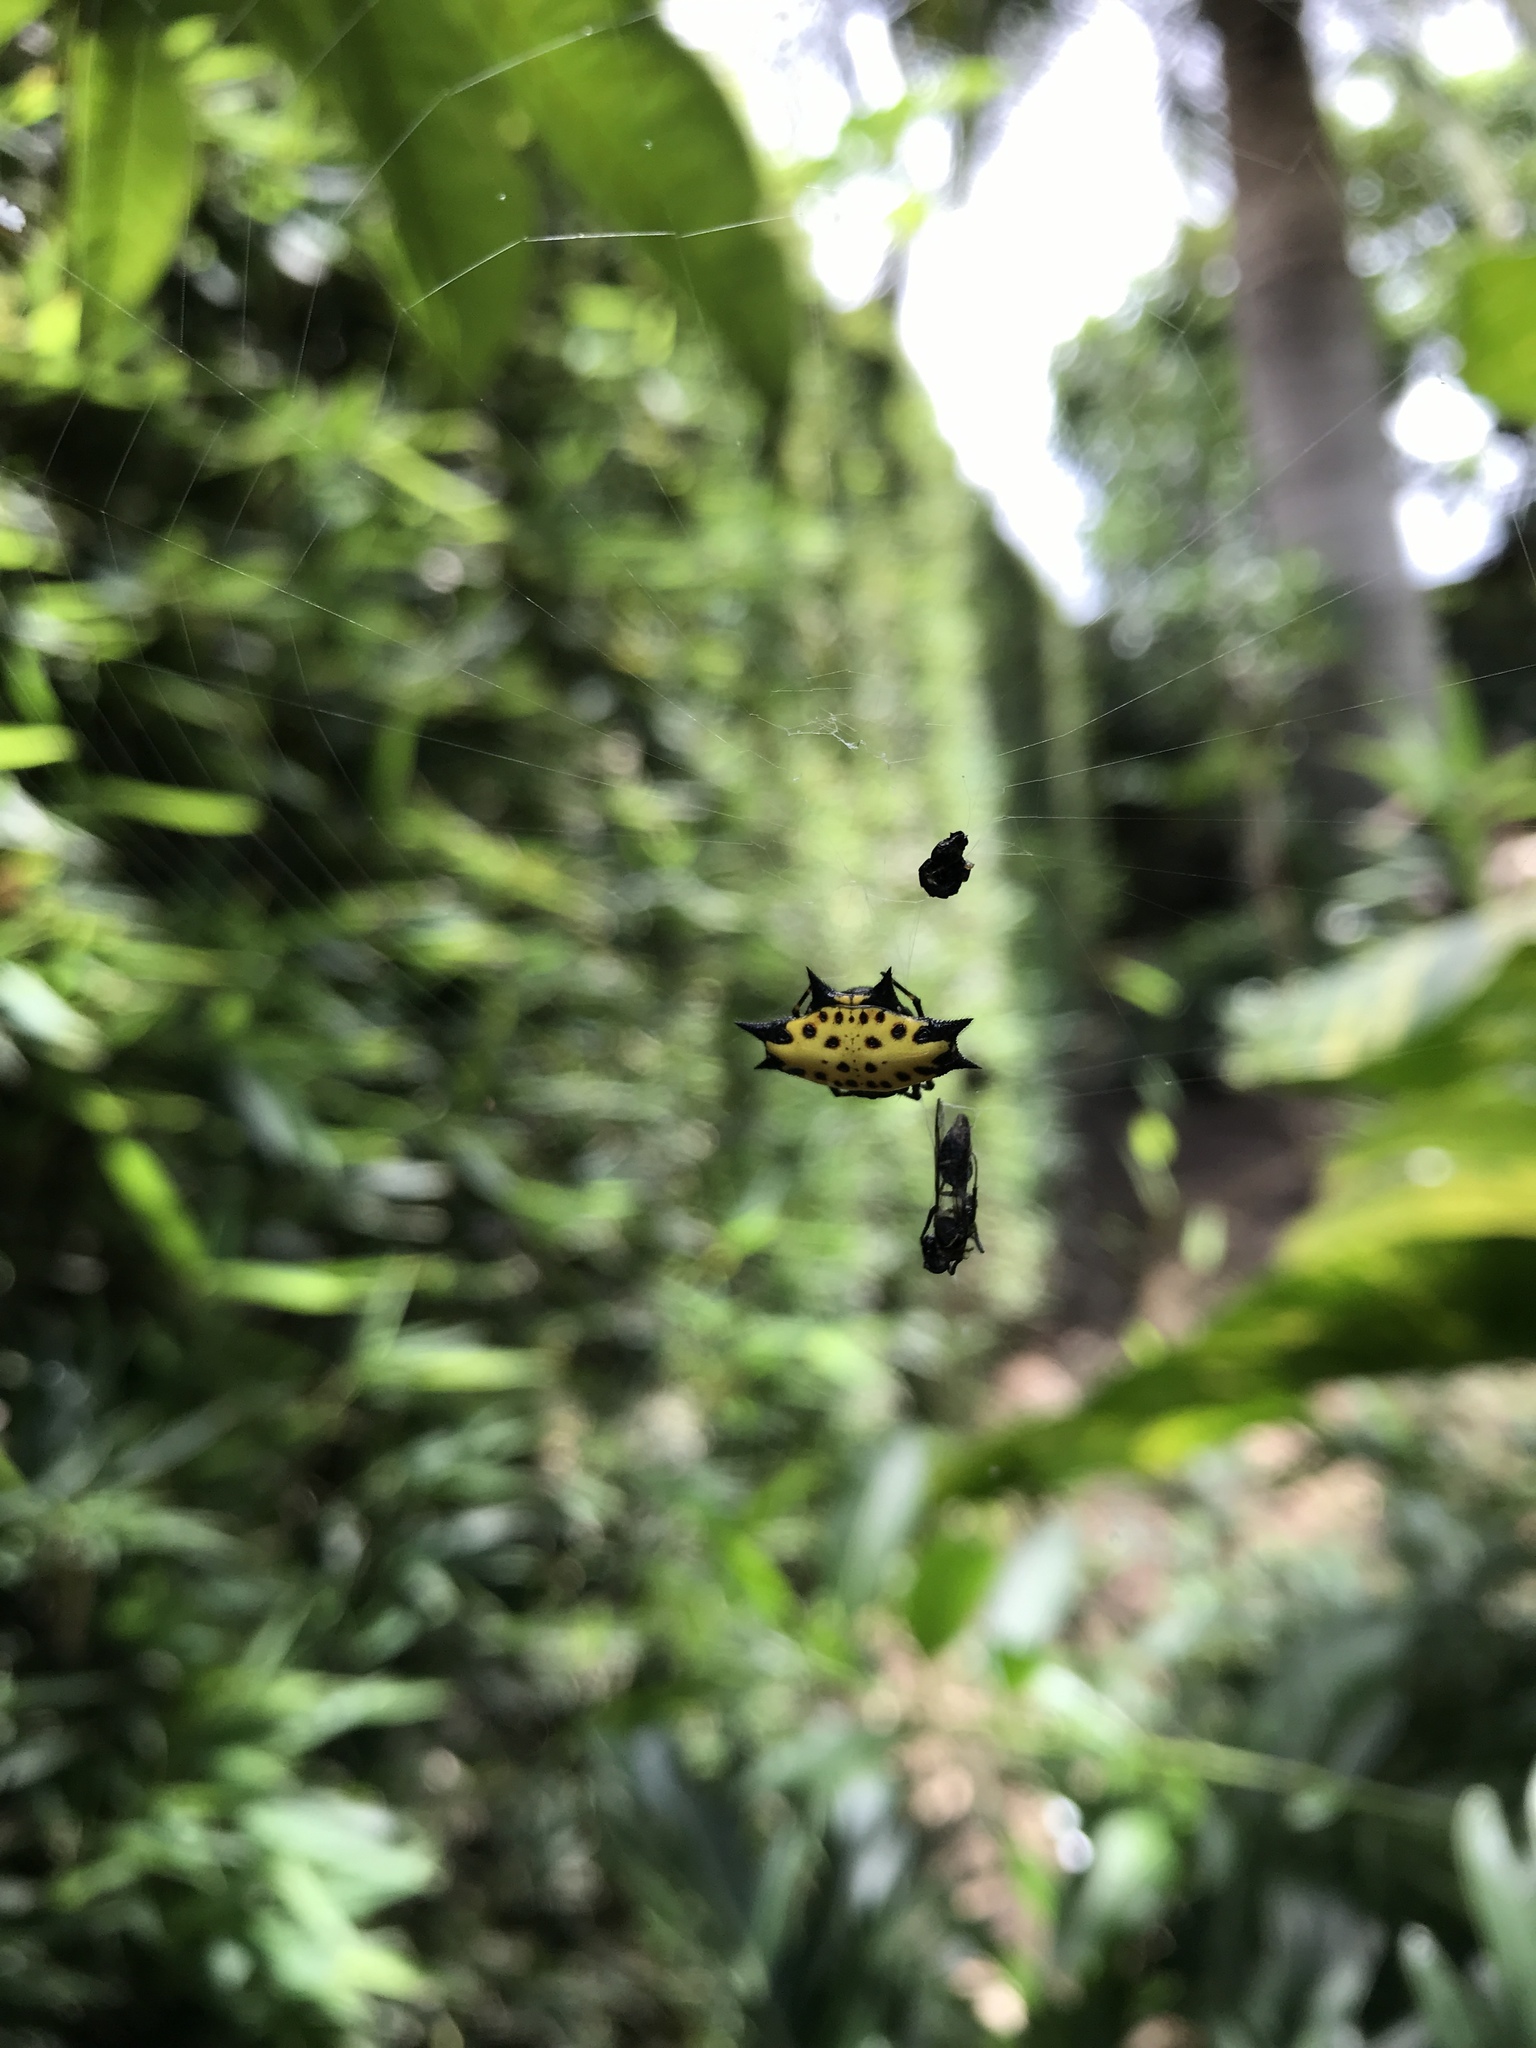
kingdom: Animalia
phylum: Arthropoda
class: Arachnida
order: Araneae
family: Araneidae
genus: Gasteracantha
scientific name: Gasteracantha cancriformis
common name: Orb weavers
